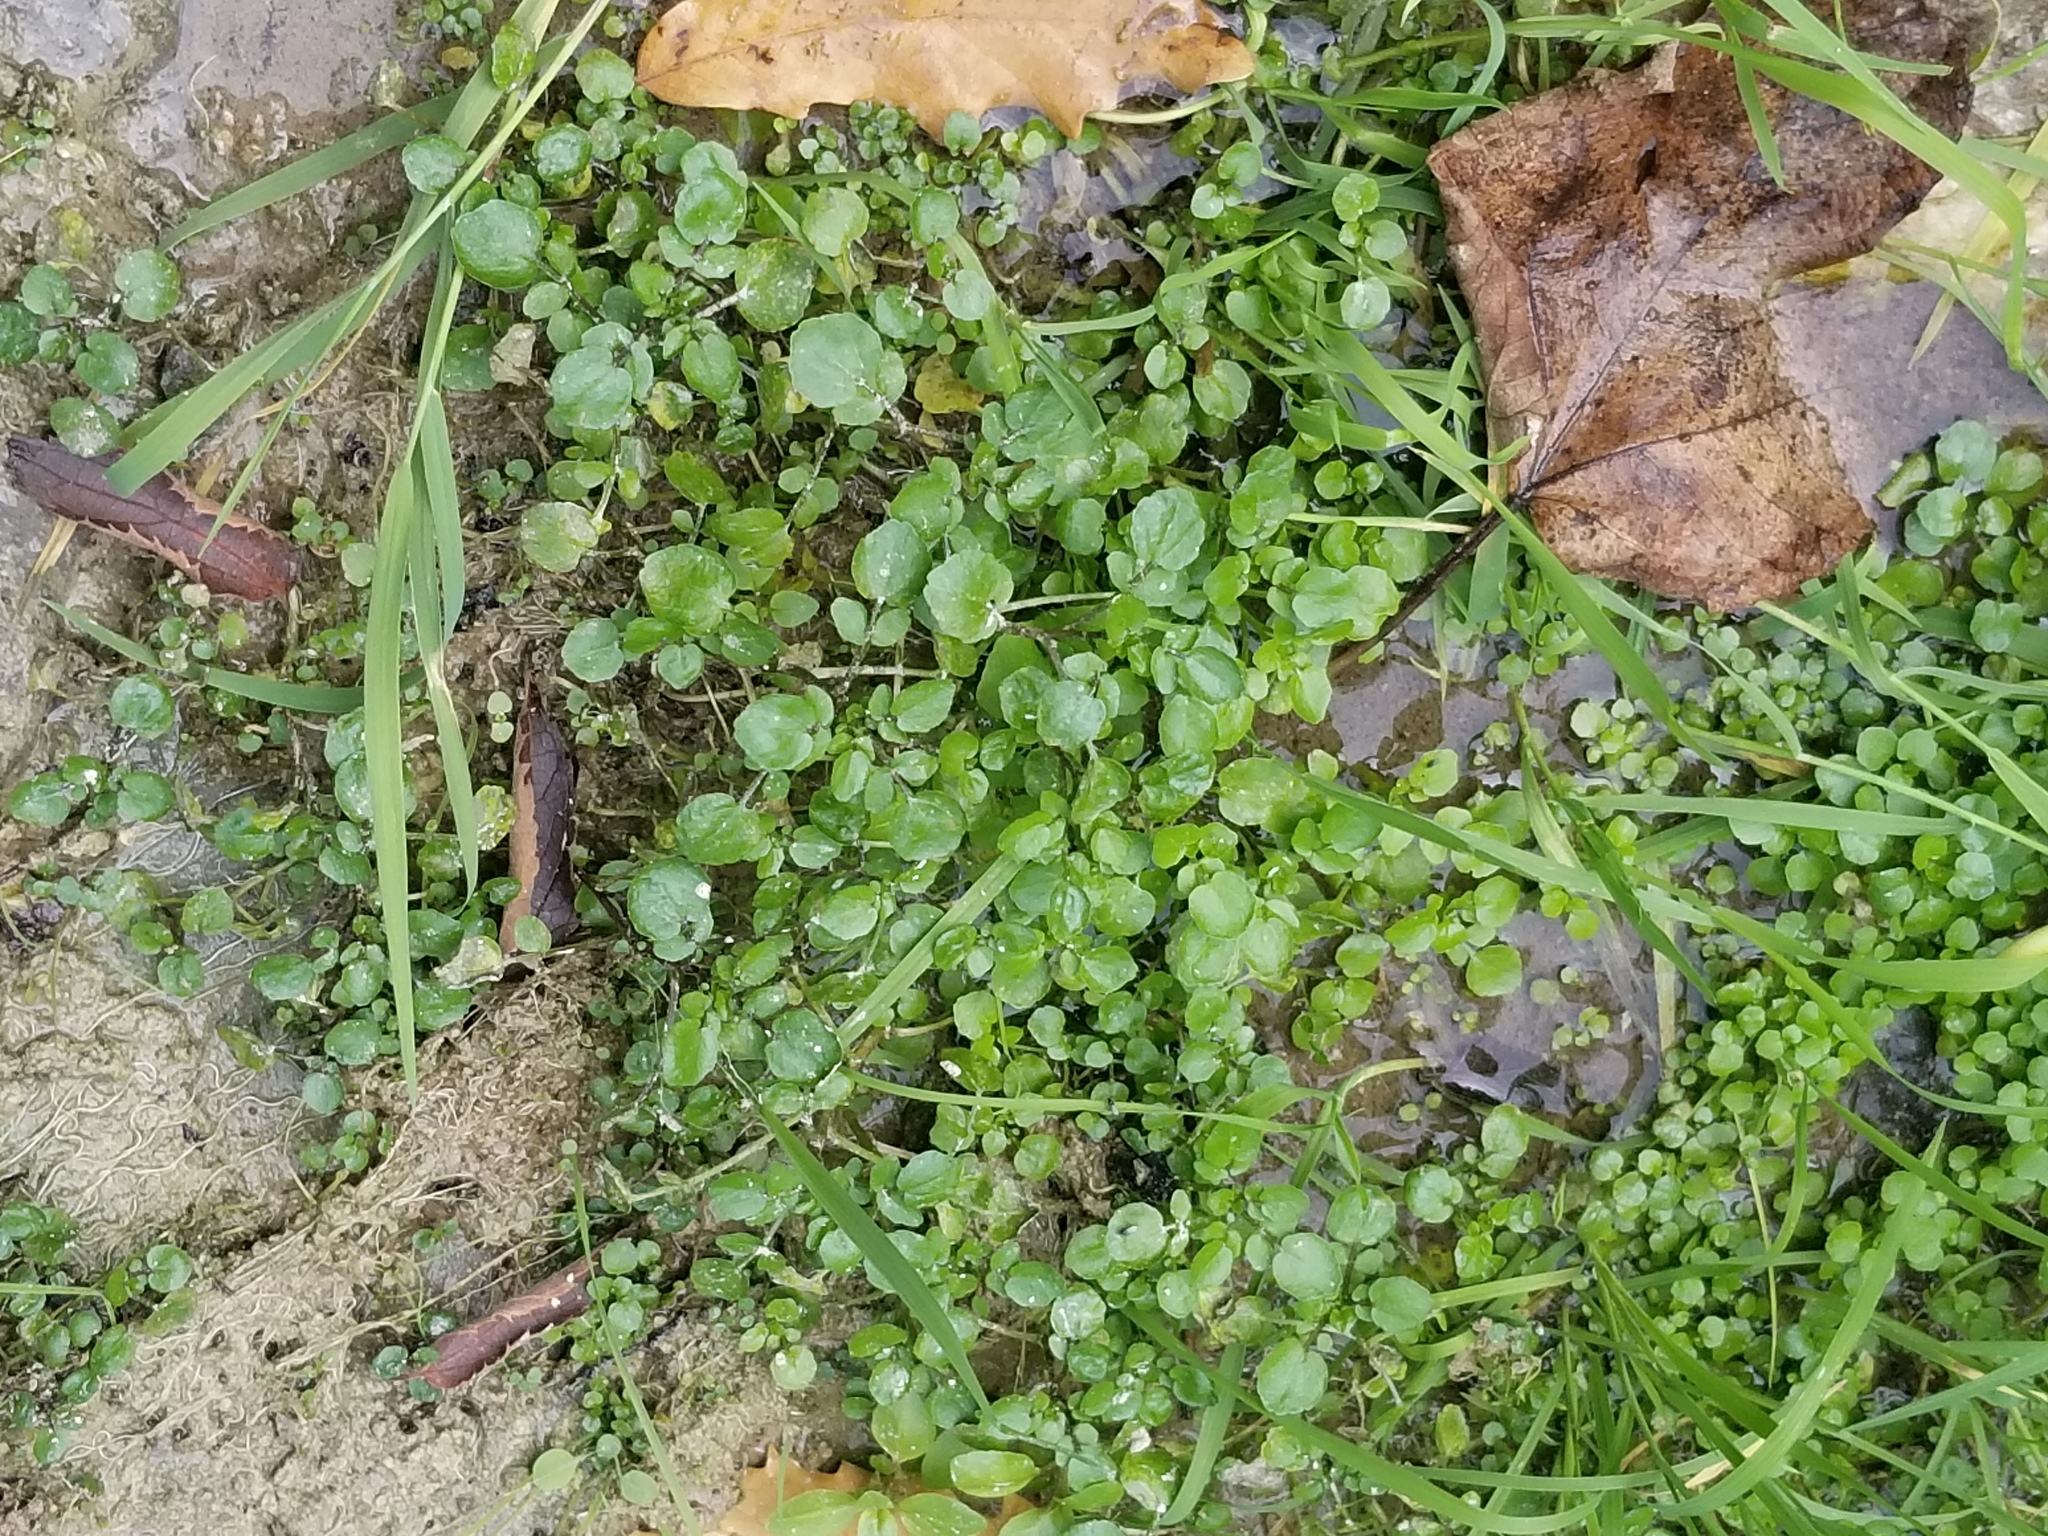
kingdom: Plantae
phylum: Tracheophyta
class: Magnoliopsida
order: Brassicales
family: Brassicaceae
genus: Nasturtium
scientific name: Nasturtium officinale
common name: Watercress
